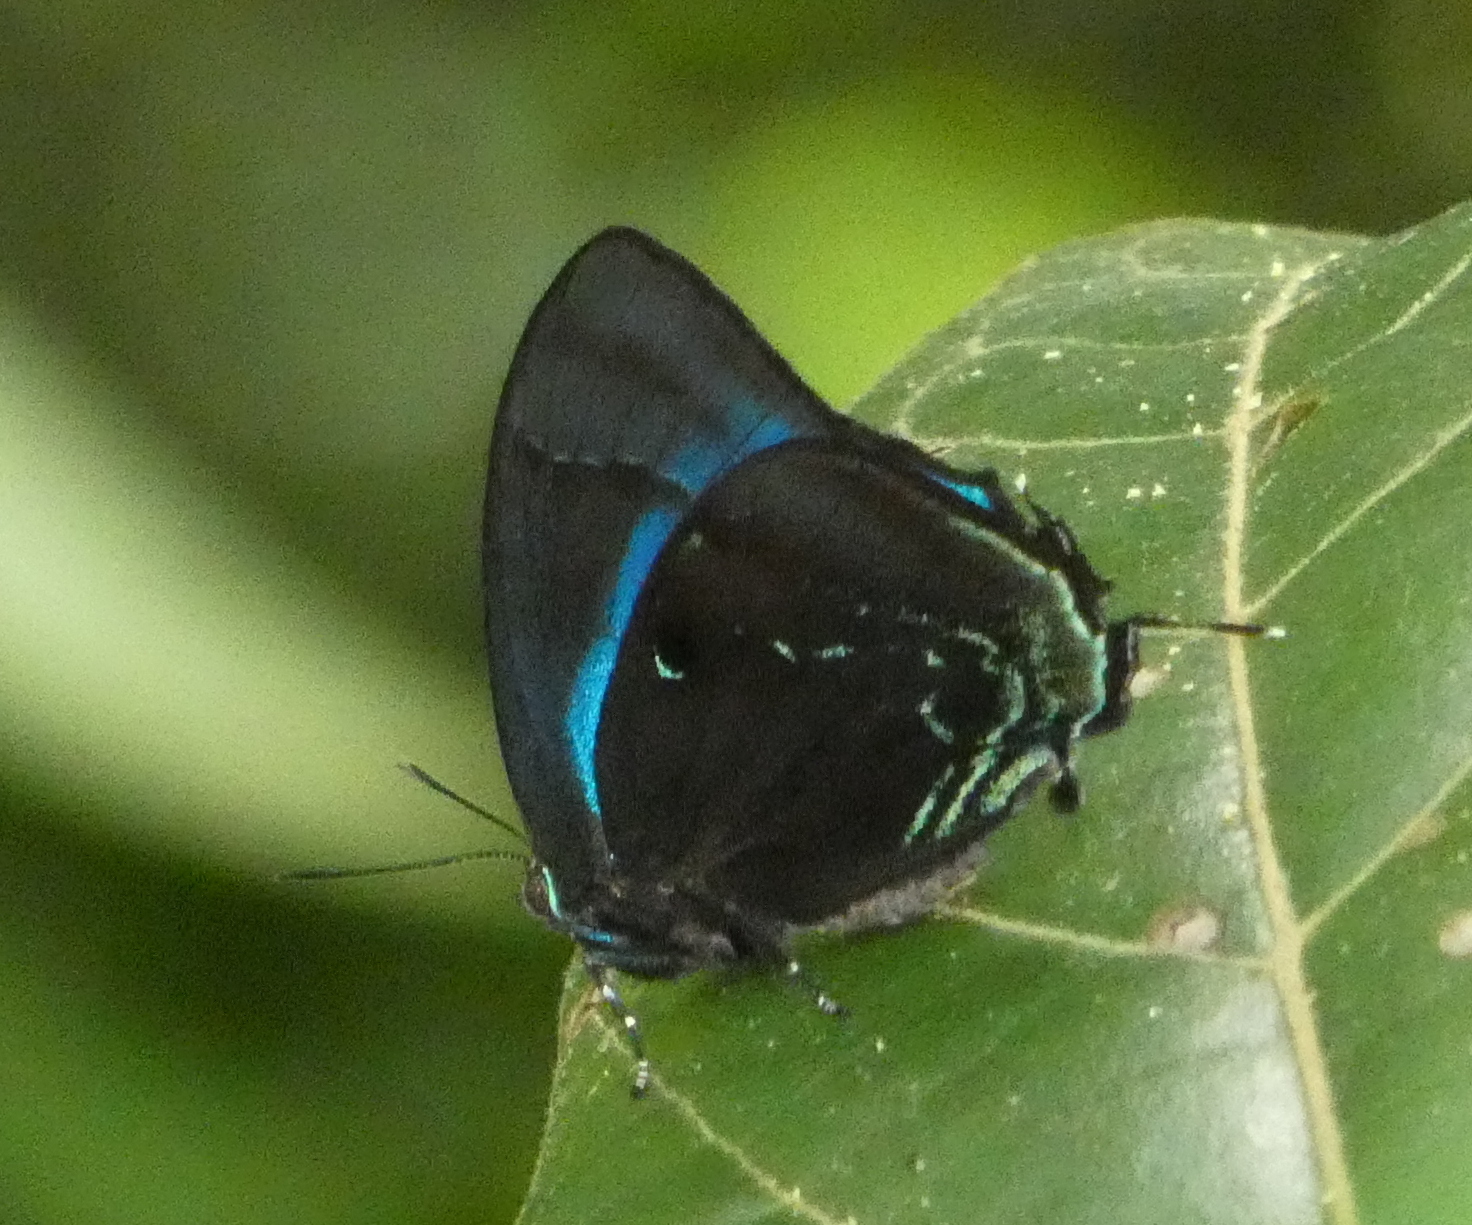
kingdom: Animalia
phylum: Arthropoda
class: Insecta
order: Lepidoptera
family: Lycaenidae
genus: Denivia
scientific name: Denivia hemon
